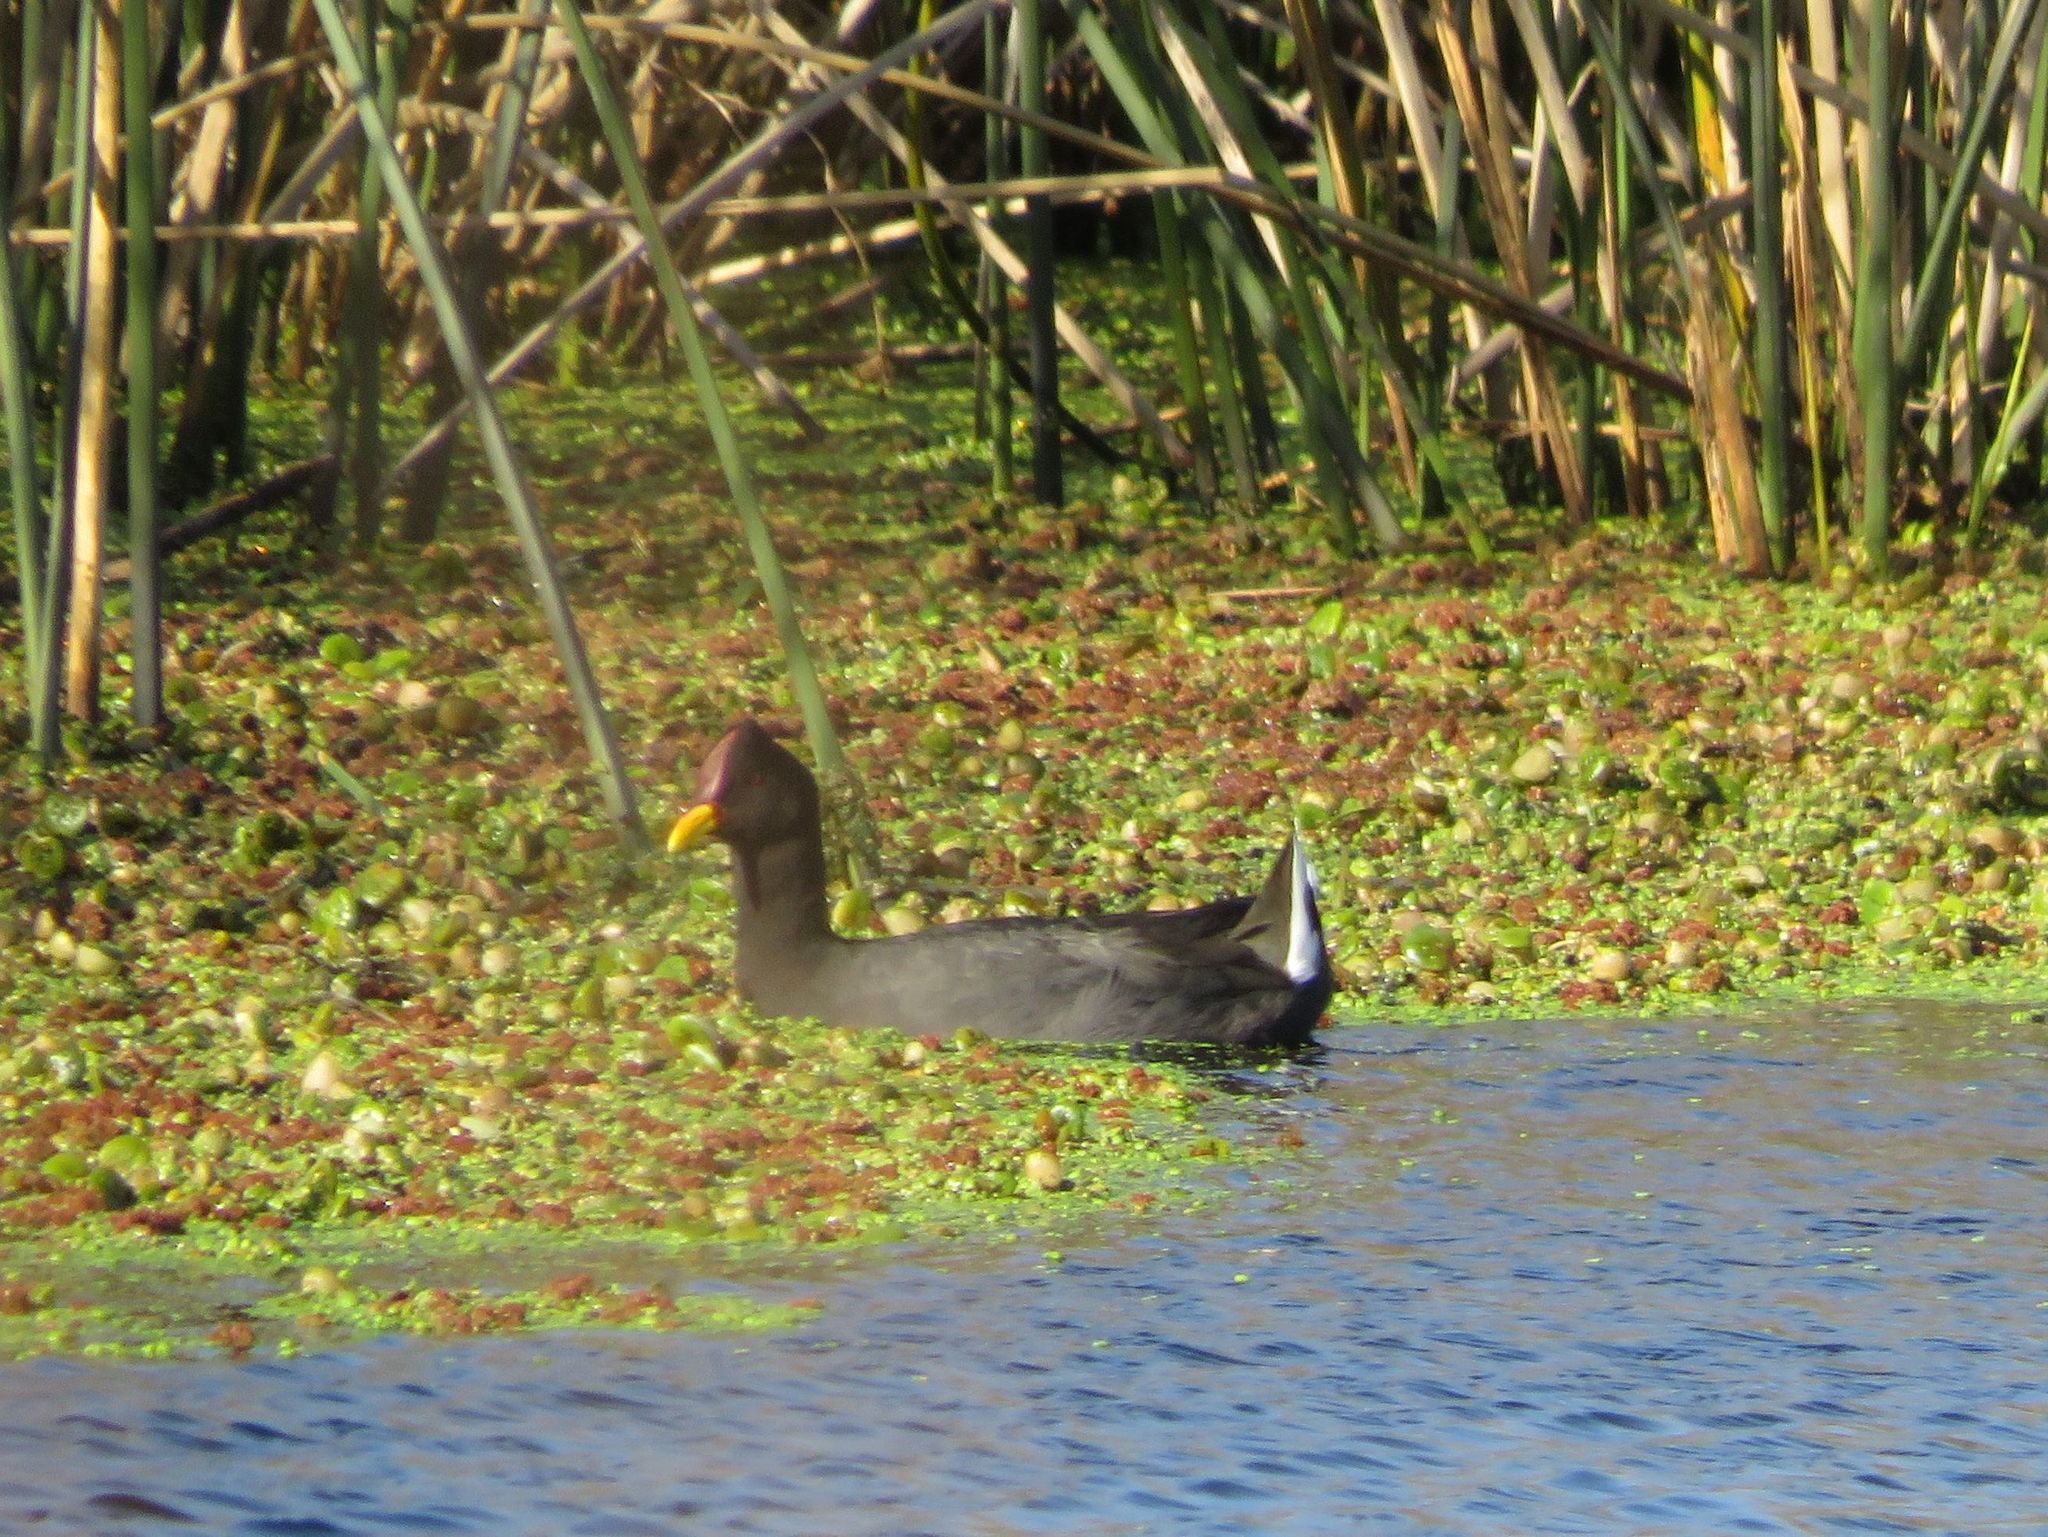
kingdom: Animalia
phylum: Chordata
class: Aves
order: Gruiformes
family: Rallidae
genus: Fulica
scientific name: Fulica rufifrons
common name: Red-fronted coot
